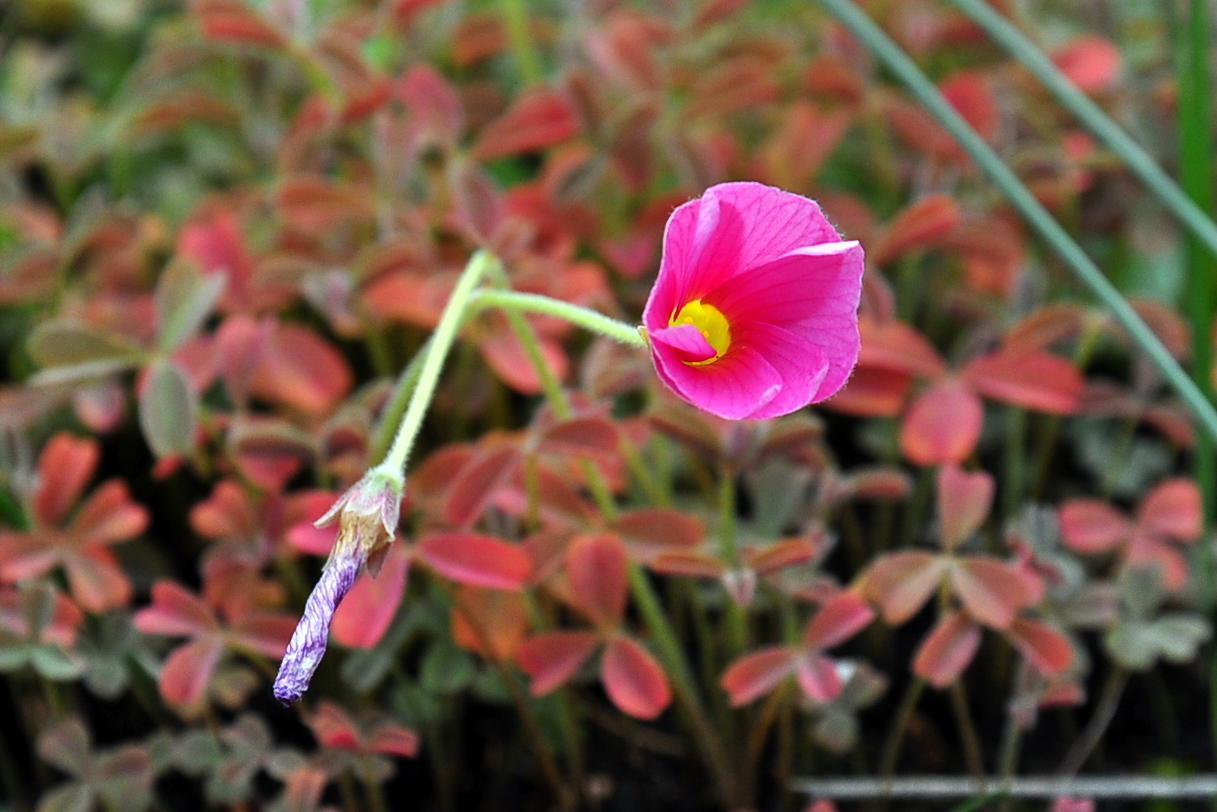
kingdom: Plantae
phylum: Tracheophyta
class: Magnoliopsida
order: Oxalidales
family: Oxalidaceae
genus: Oxalis
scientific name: Oxalis obtusa
